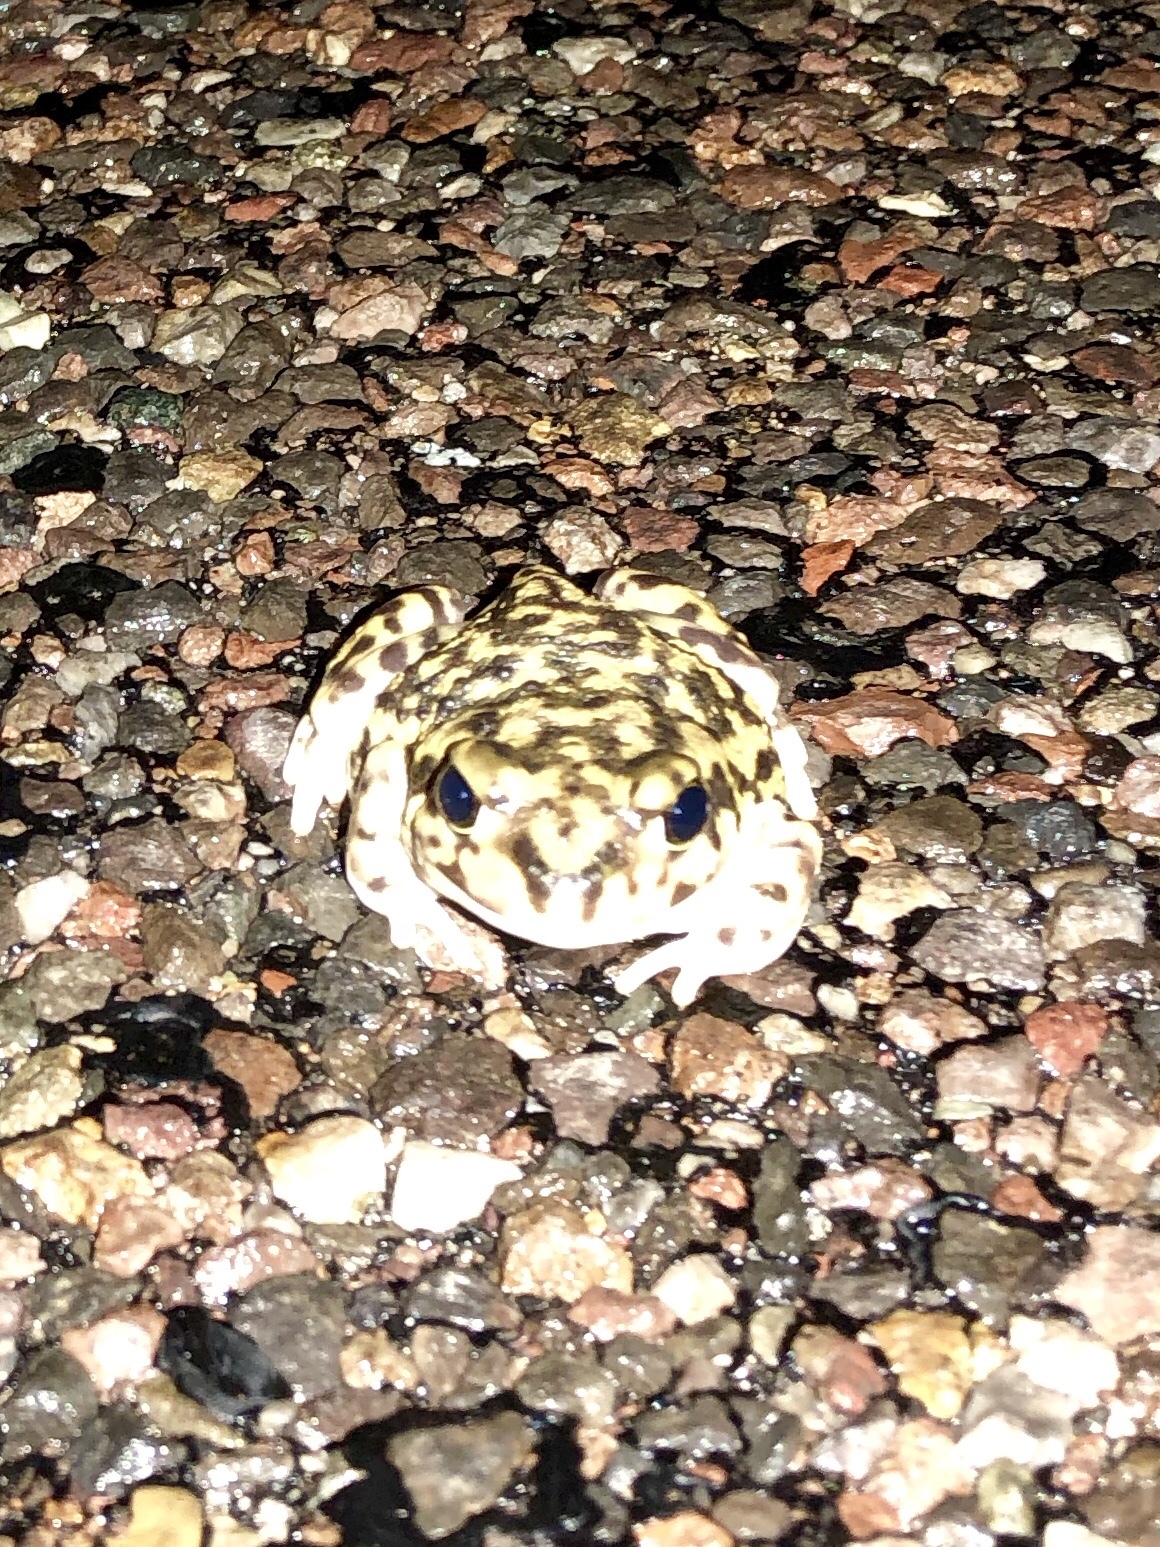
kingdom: Animalia
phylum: Chordata
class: Amphibia
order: Anura
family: Scaphiopodidae
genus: Scaphiopus
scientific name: Scaphiopus couchii
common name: Couch's spadefoot toad
